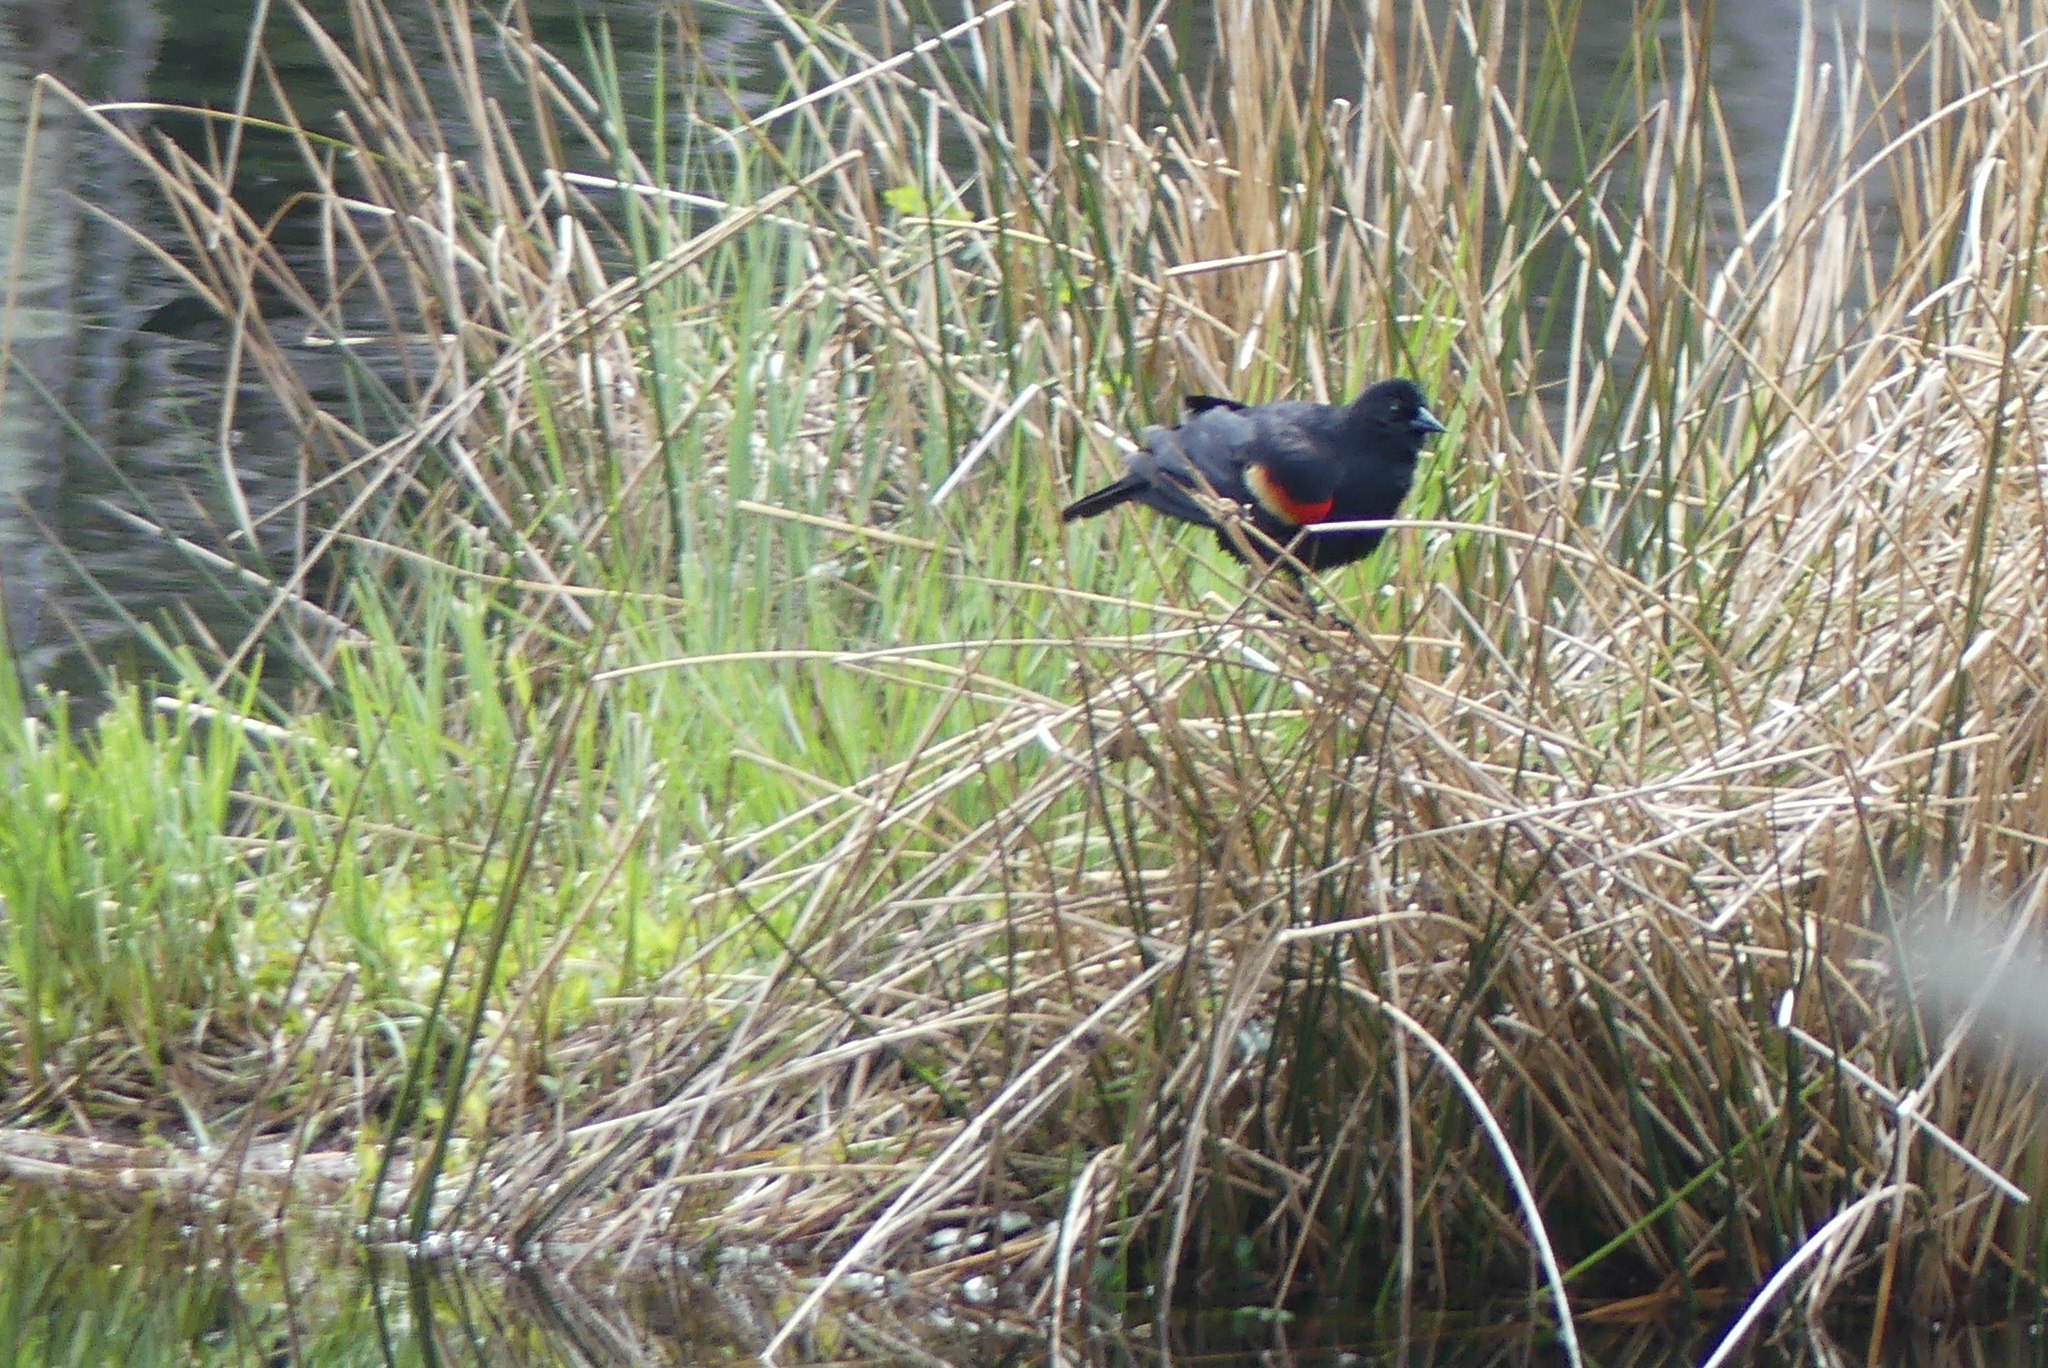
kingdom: Animalia
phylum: Chordata
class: Aves
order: Passeriformes
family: Icteridae
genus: Agelaius
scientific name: Agelaius phoeniceus
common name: Red-winged blackbird
